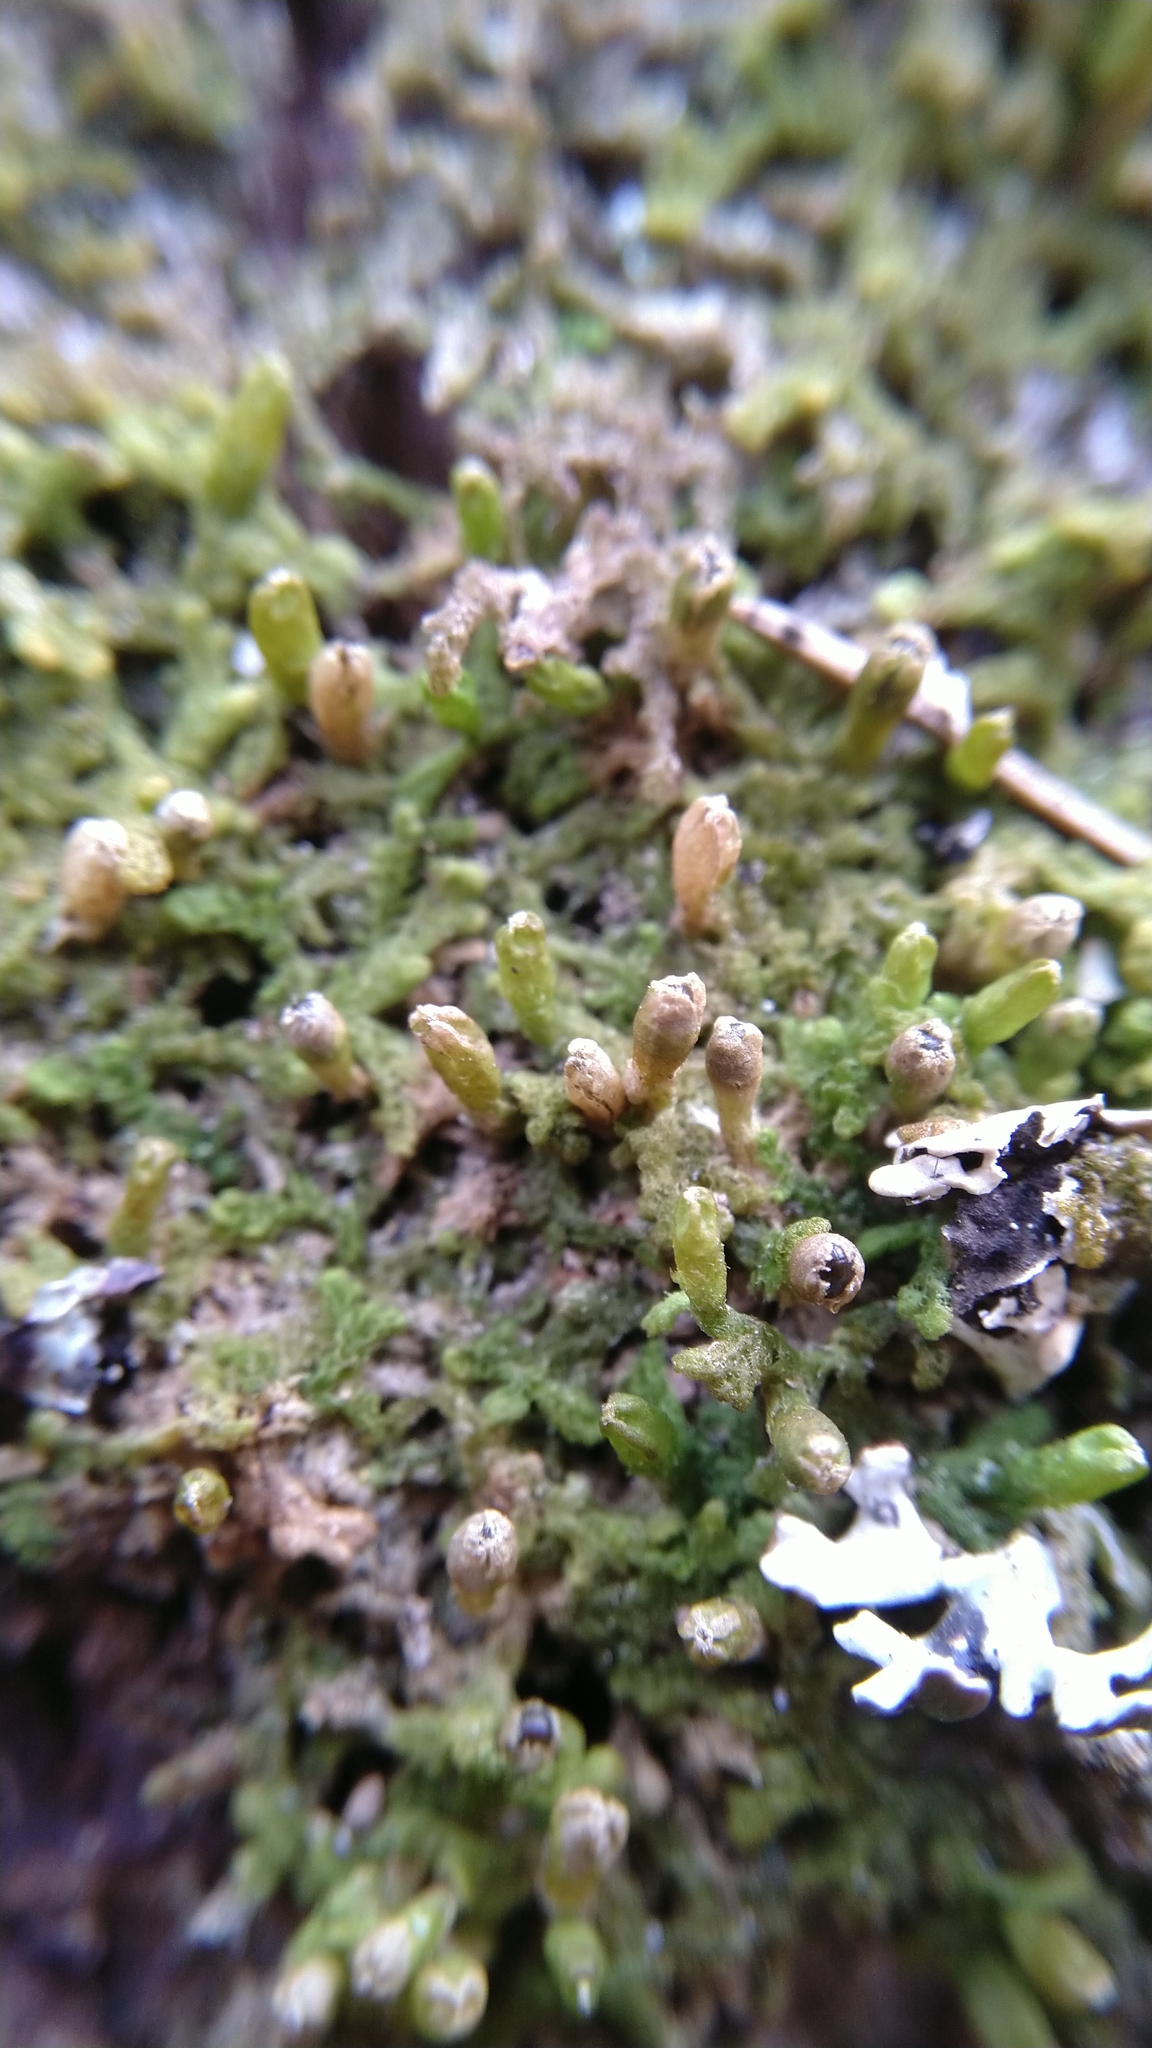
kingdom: Plantae
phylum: Marchantiophyta
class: Jungermanniopsida
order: Ptilidiales
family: Ptilidiaceae
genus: Ptilidium
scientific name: Ptilidium pulcherrimum
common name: Tree fringewort
